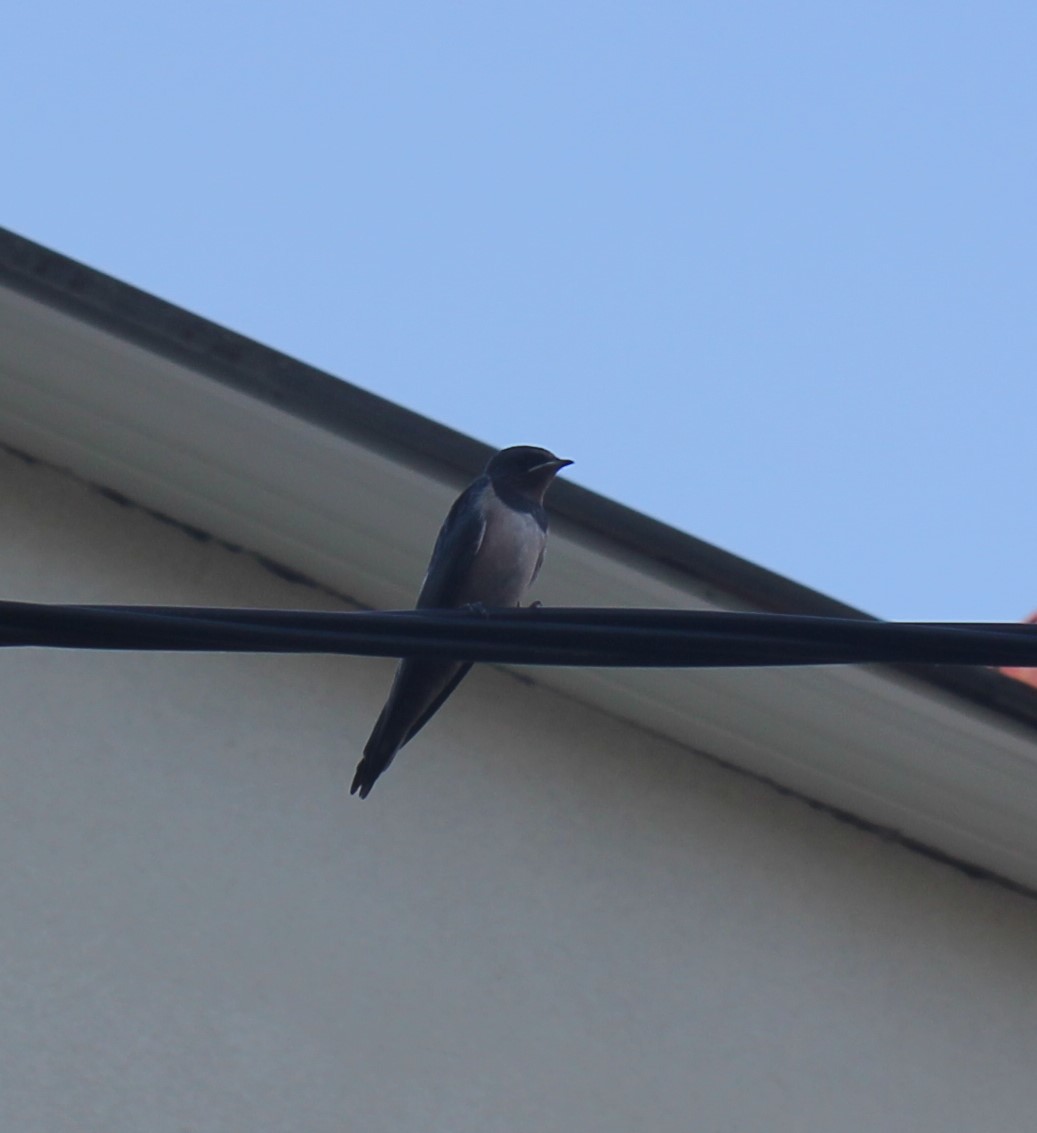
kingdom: Animalia
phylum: Chordata
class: Aves
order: Passeriformes
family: Hirundinidae
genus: Hirundo
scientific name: Hirundo rustica
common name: Barn swallow
